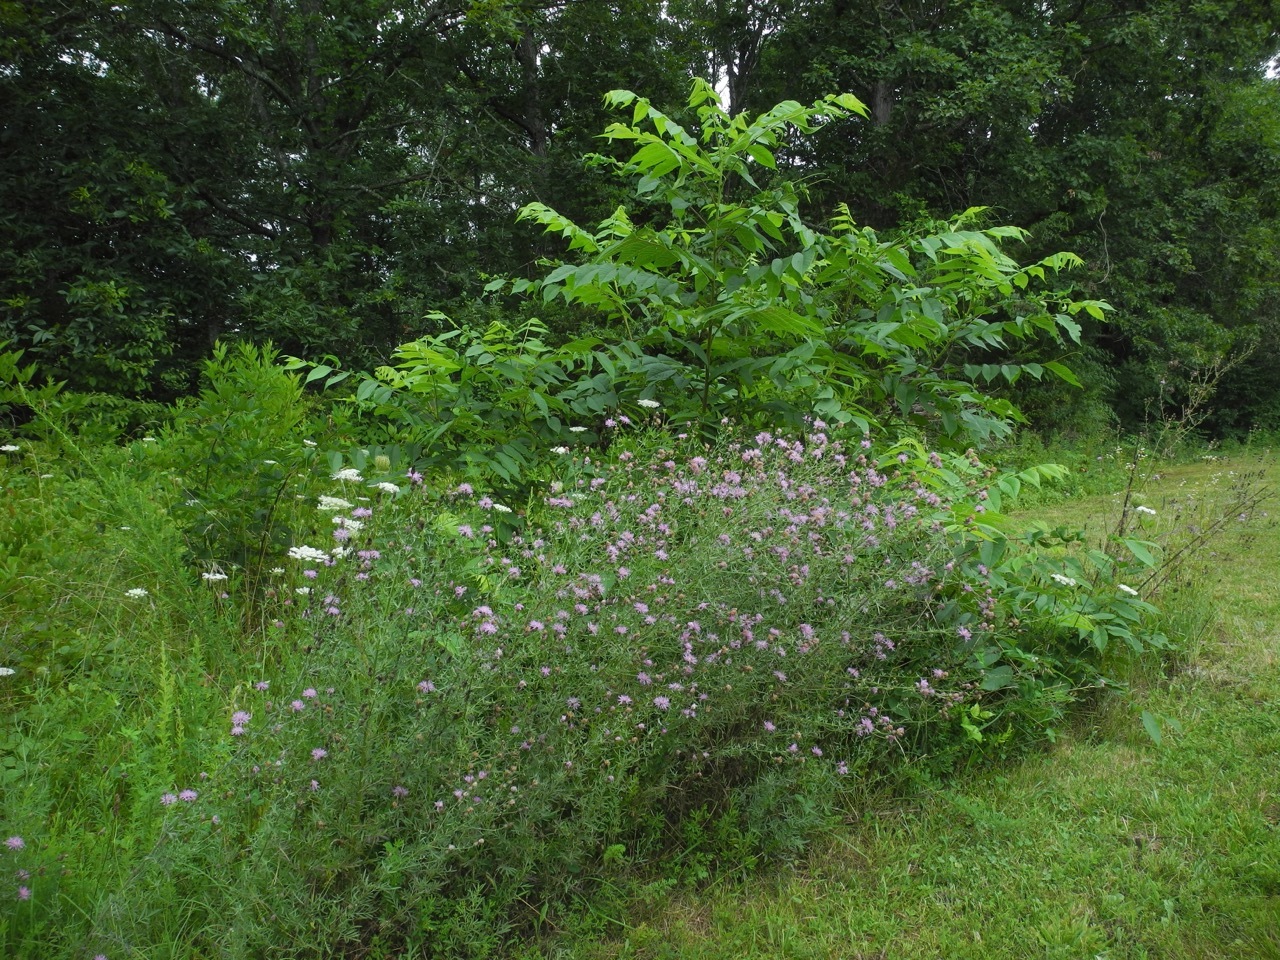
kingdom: Plantae
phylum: Tracheophyta
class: Magnoliopsida
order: Asterales
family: Asteraceae
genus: Centaurea
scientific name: Centaurea australis
